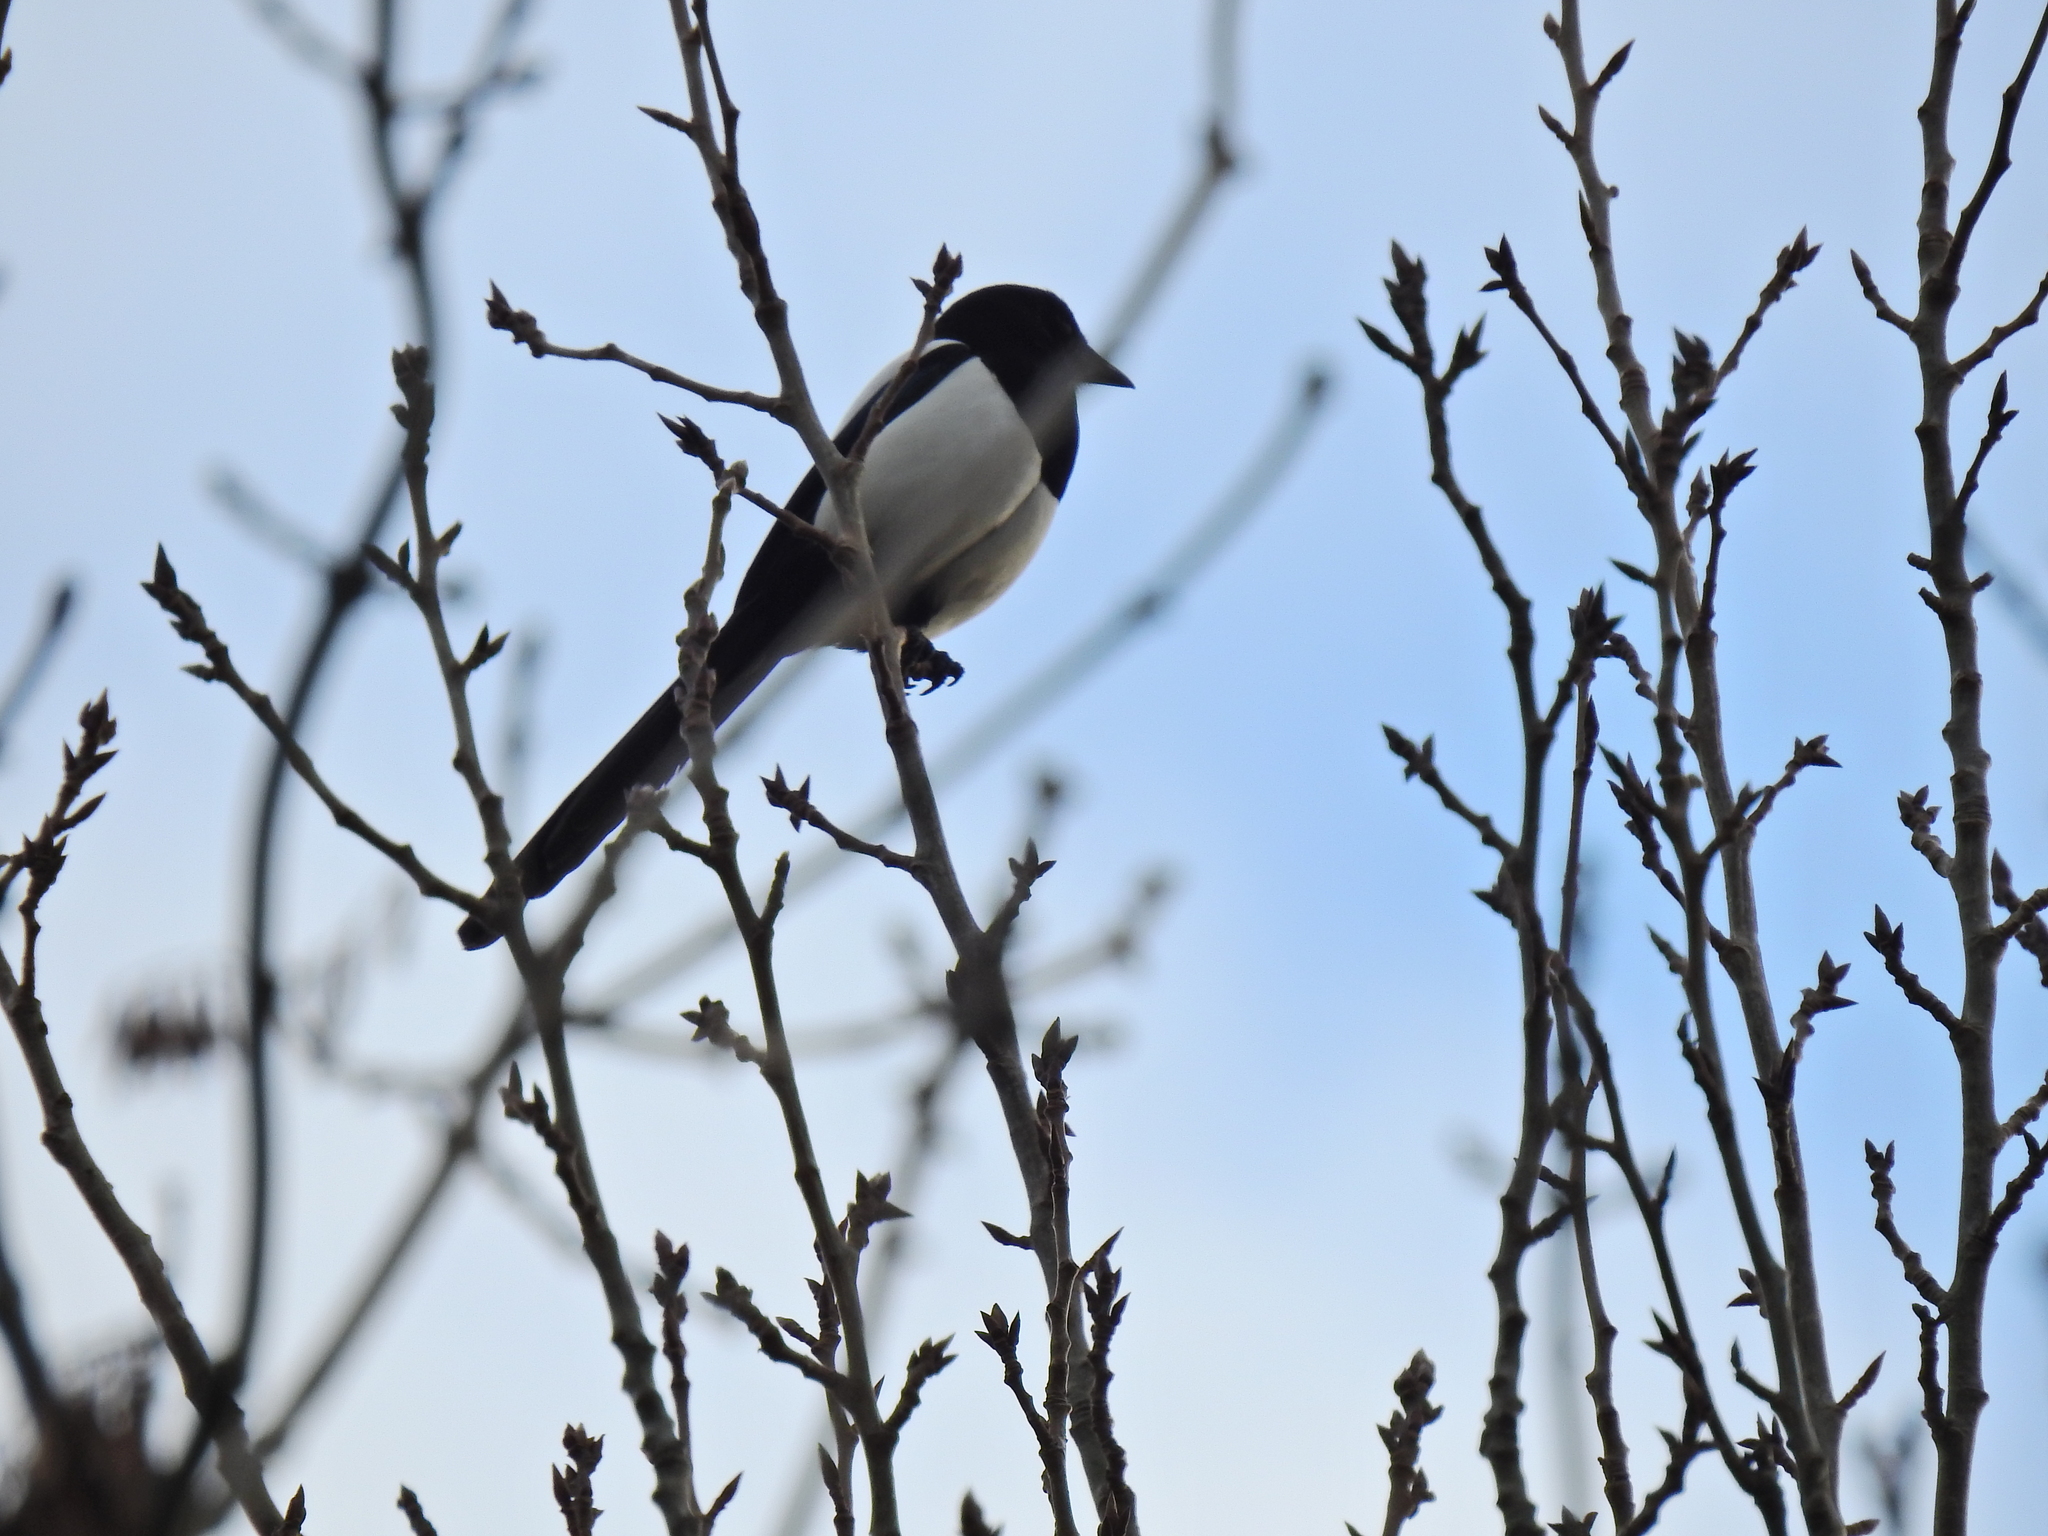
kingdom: Animalia
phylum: Chordata
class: Aves
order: Passeriformes
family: Corvidae
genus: Pica
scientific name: Pica pica
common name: Eurasian magpie
